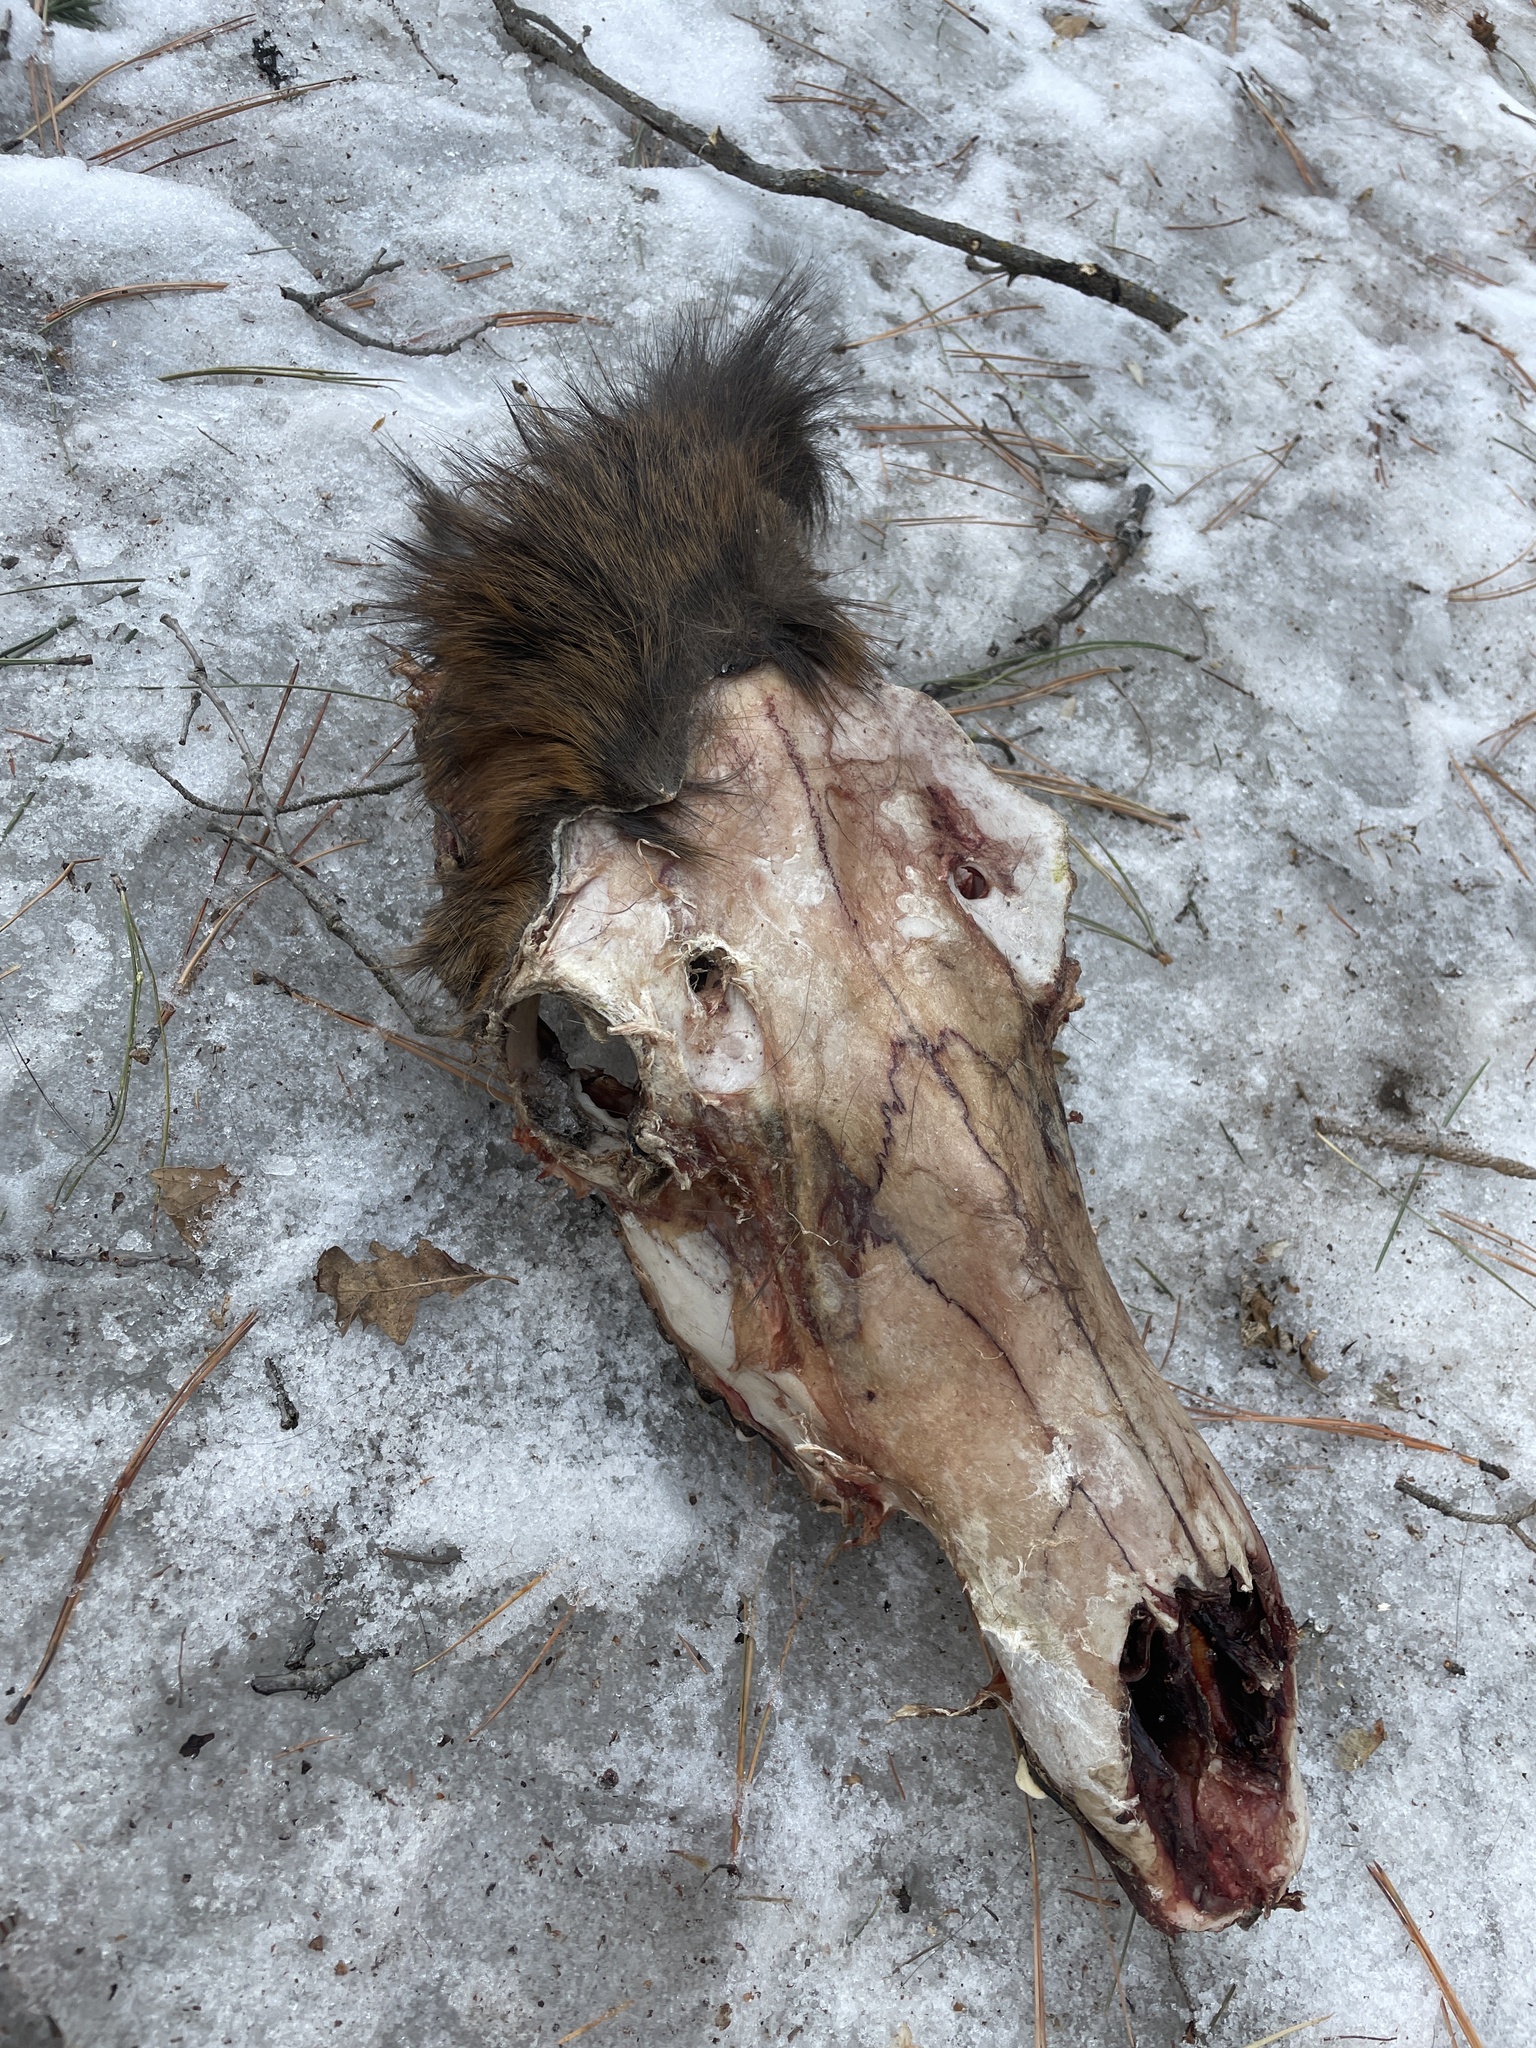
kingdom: Animalia
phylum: Chordata
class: Mammalia
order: Artiodactyla
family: Cervidae
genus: Cervus
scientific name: Cervus elaphus
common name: Red deer
